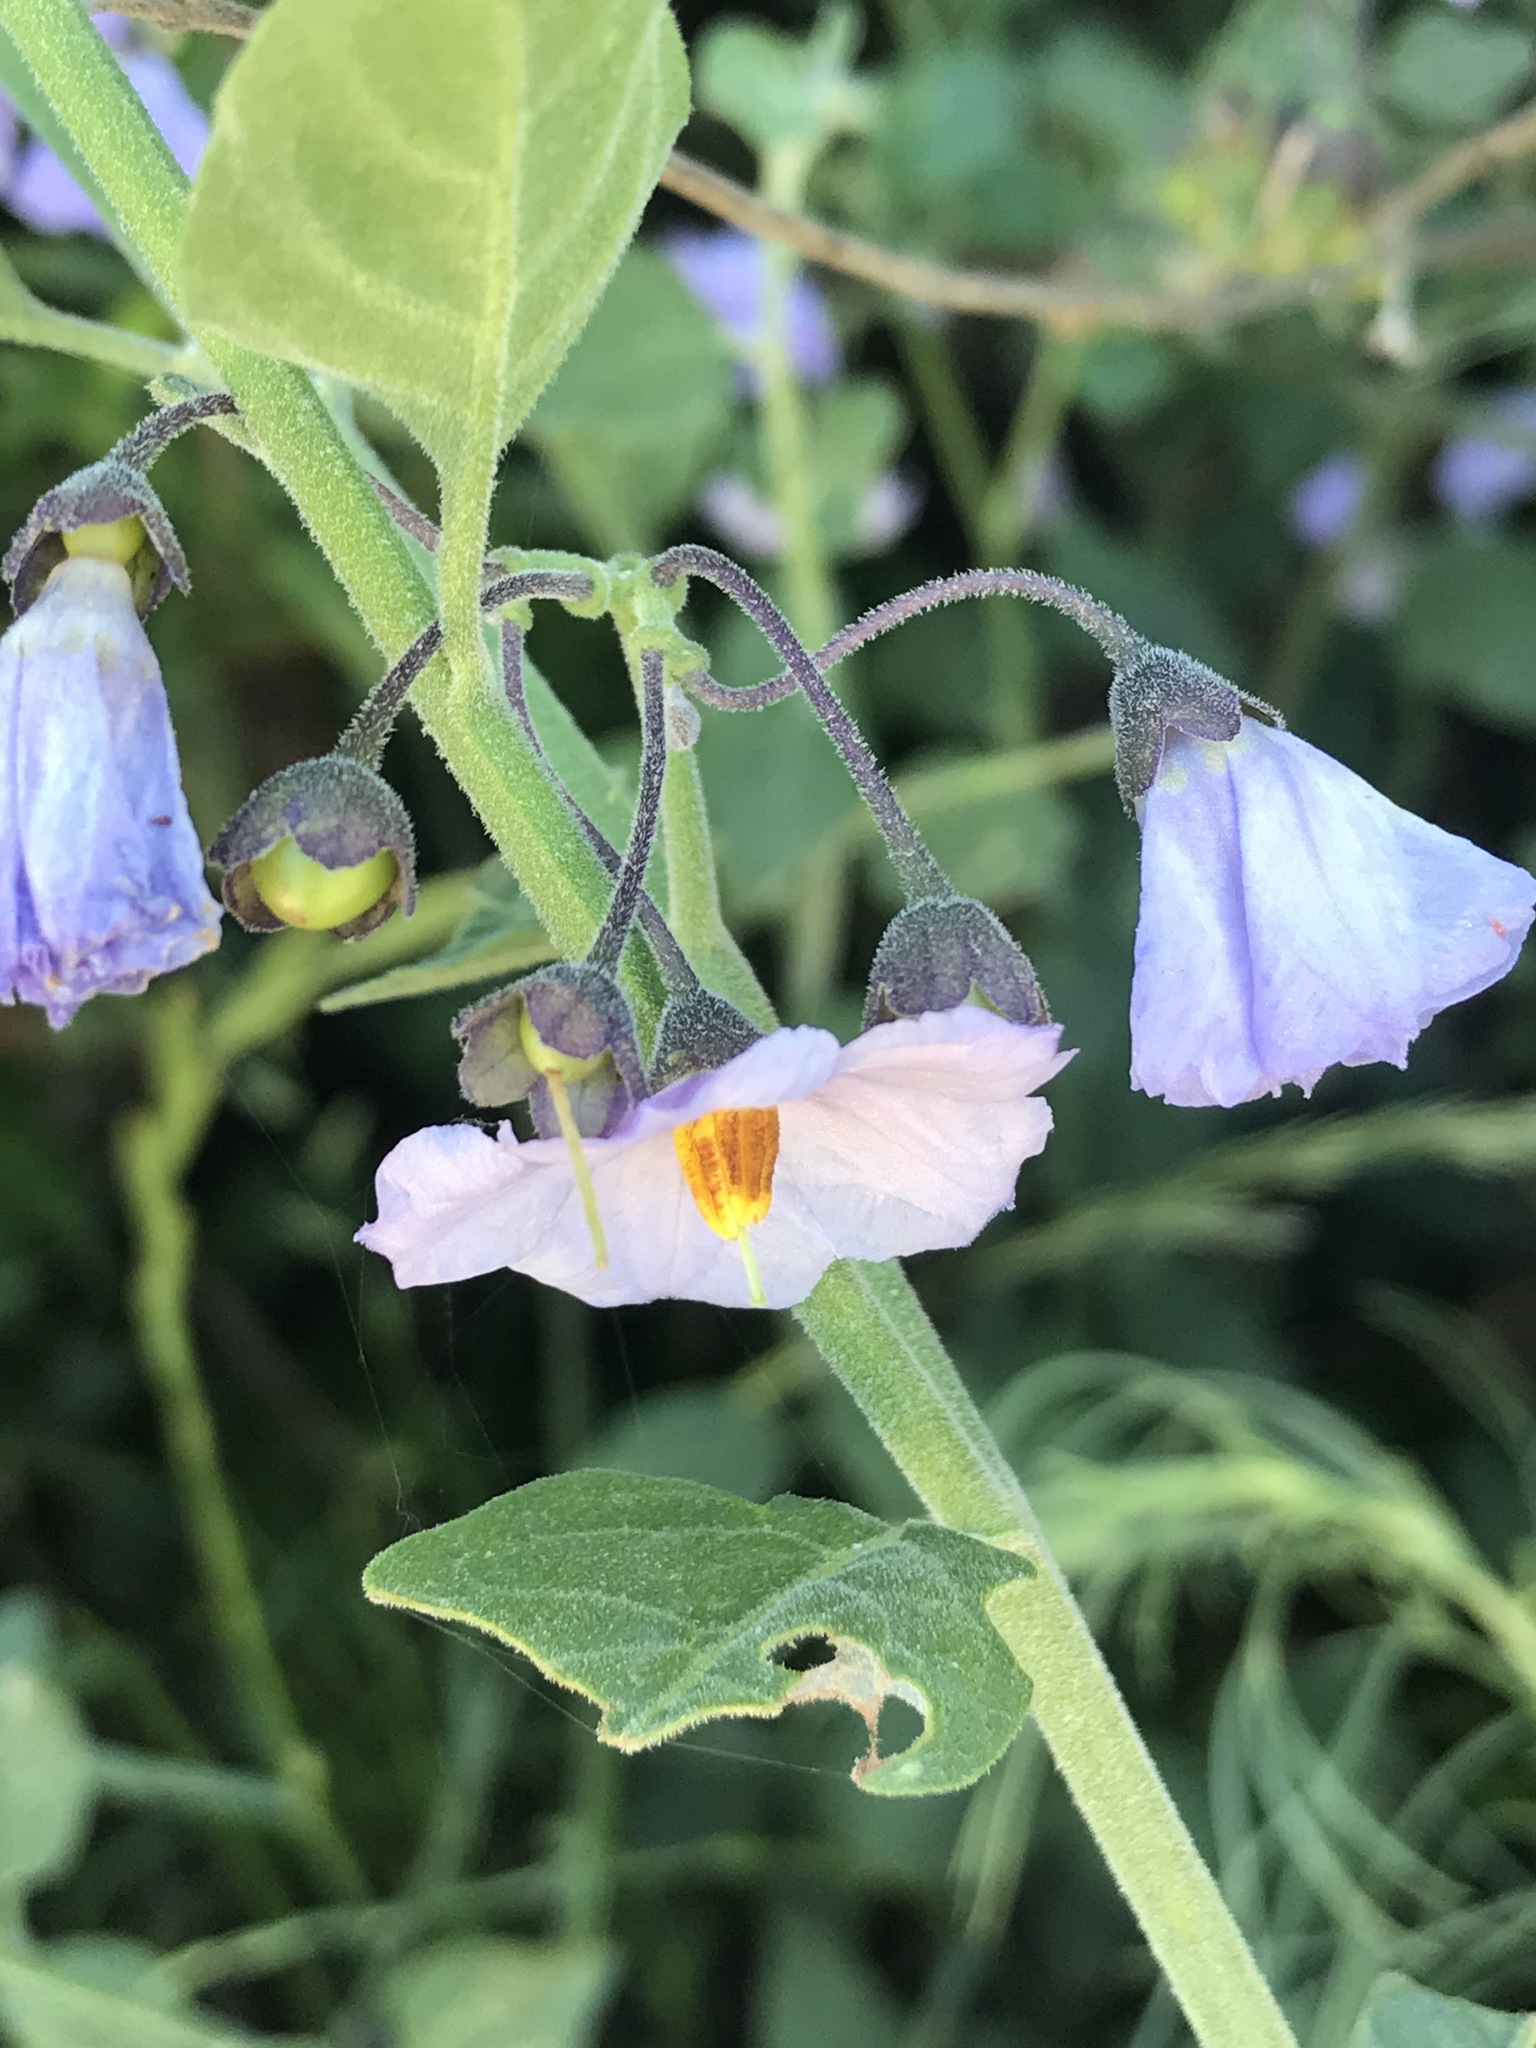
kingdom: Plantae
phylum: Tracheophyta
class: Magnoliopsida
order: Solanales
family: Solanaceae
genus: Solanum
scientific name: Solanum umbelliferum
